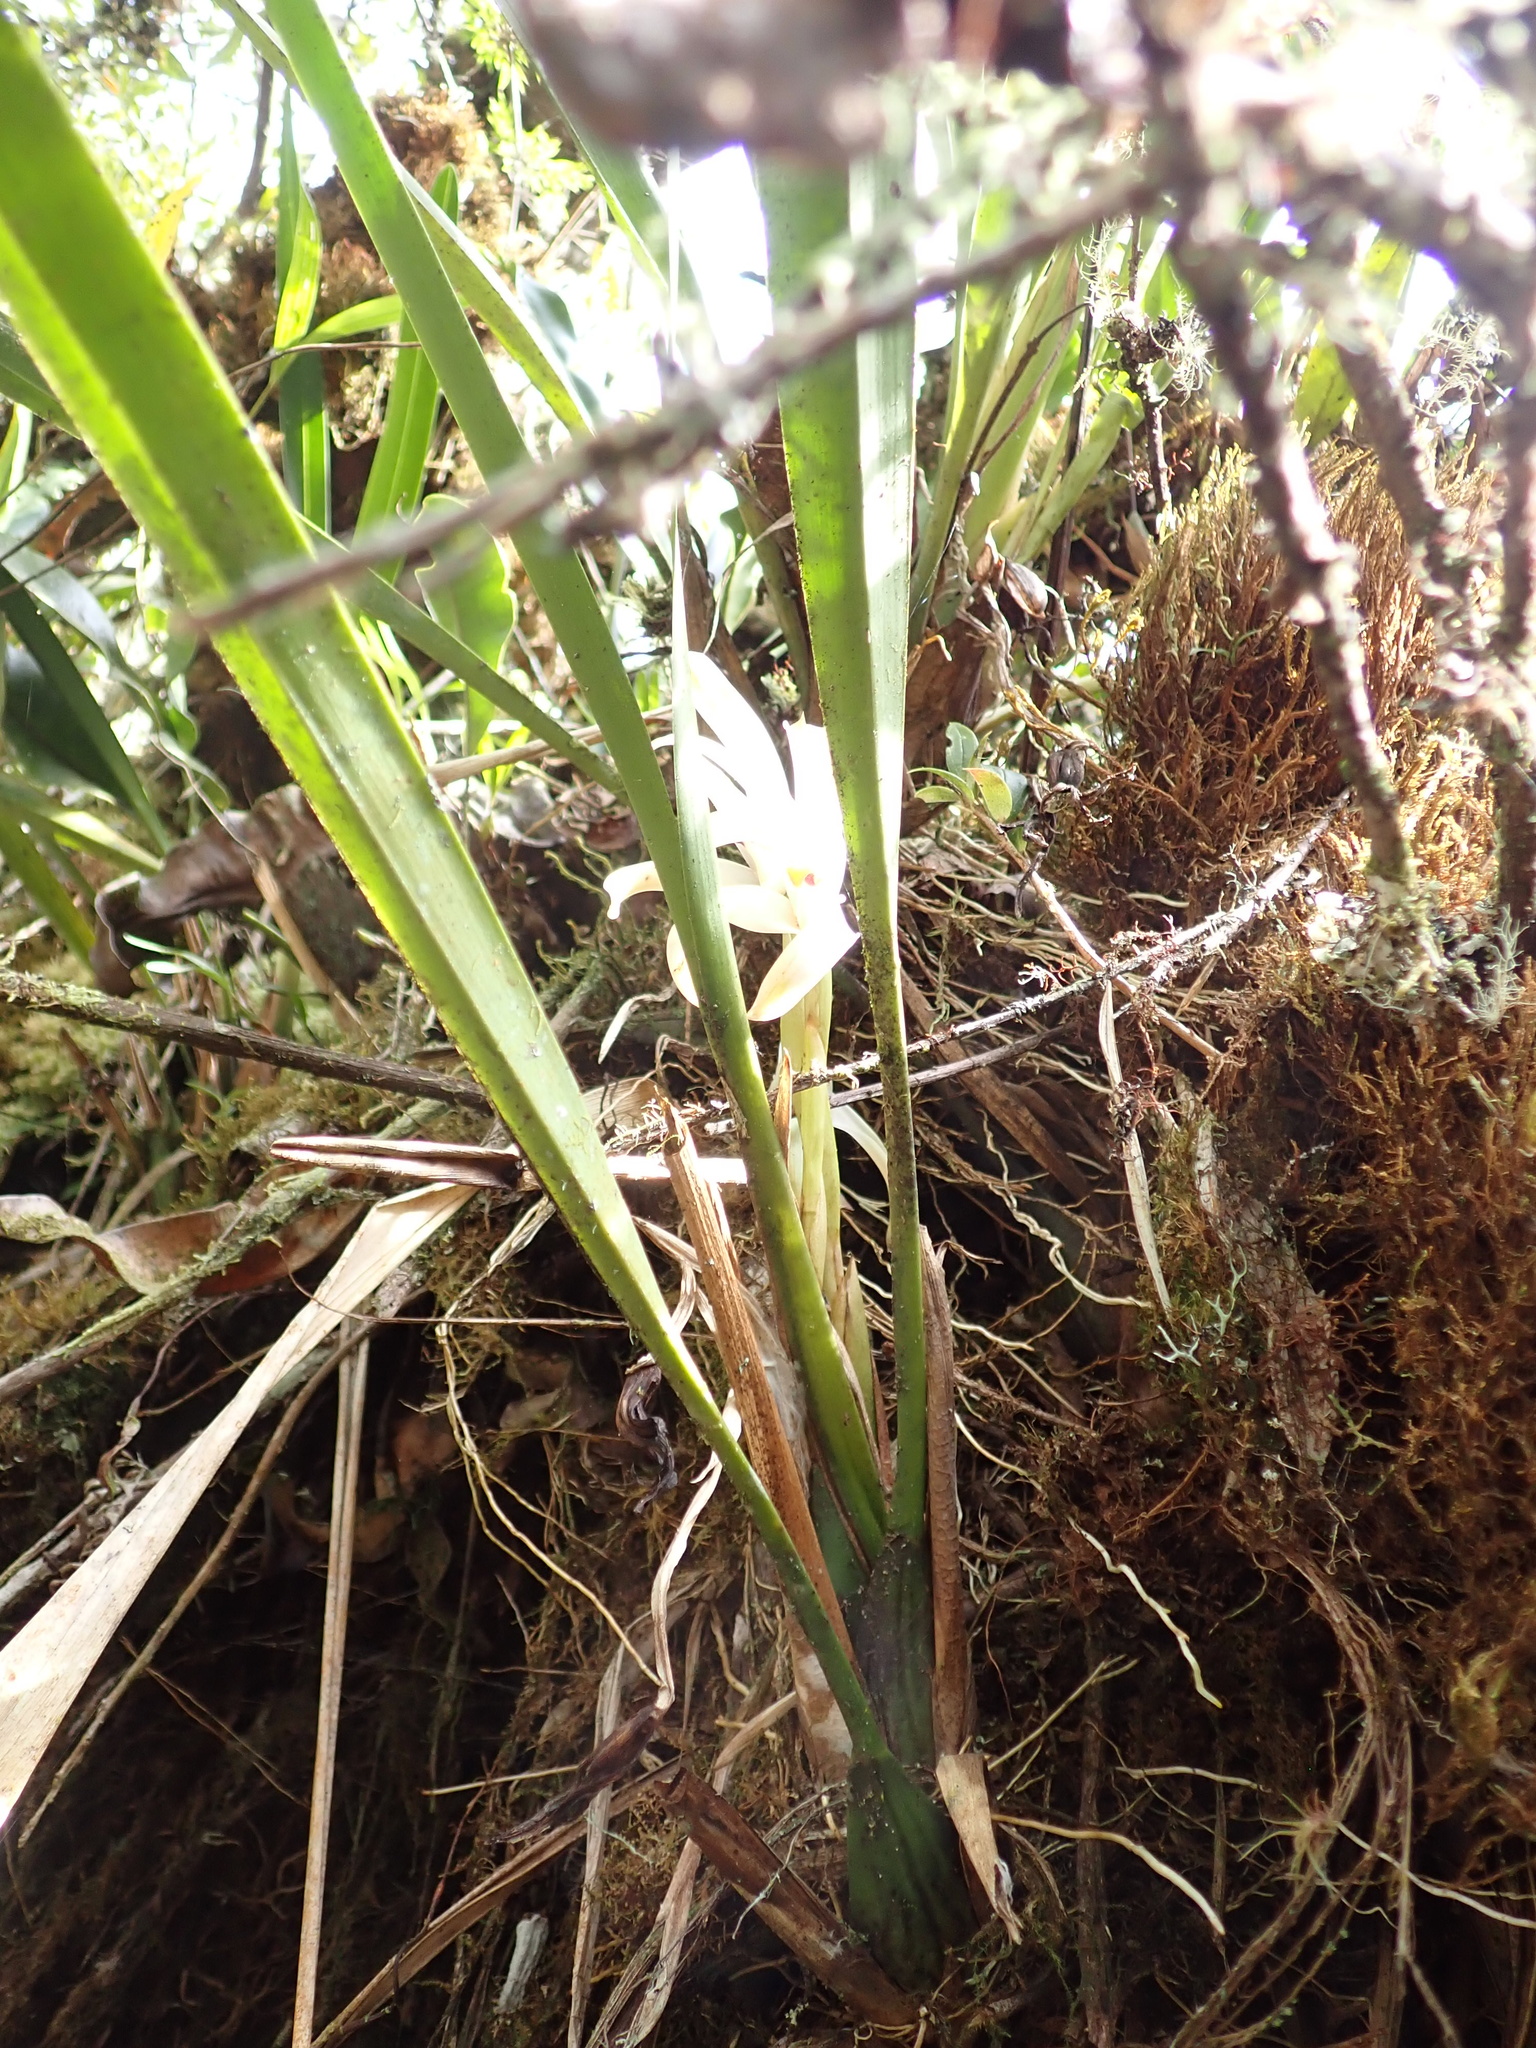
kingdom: Plantae
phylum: Tracheophyta
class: Liliopsida
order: Asparagales
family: Orchidaceae
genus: Maxillaria
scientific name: Maxillaria mungoschraderi
